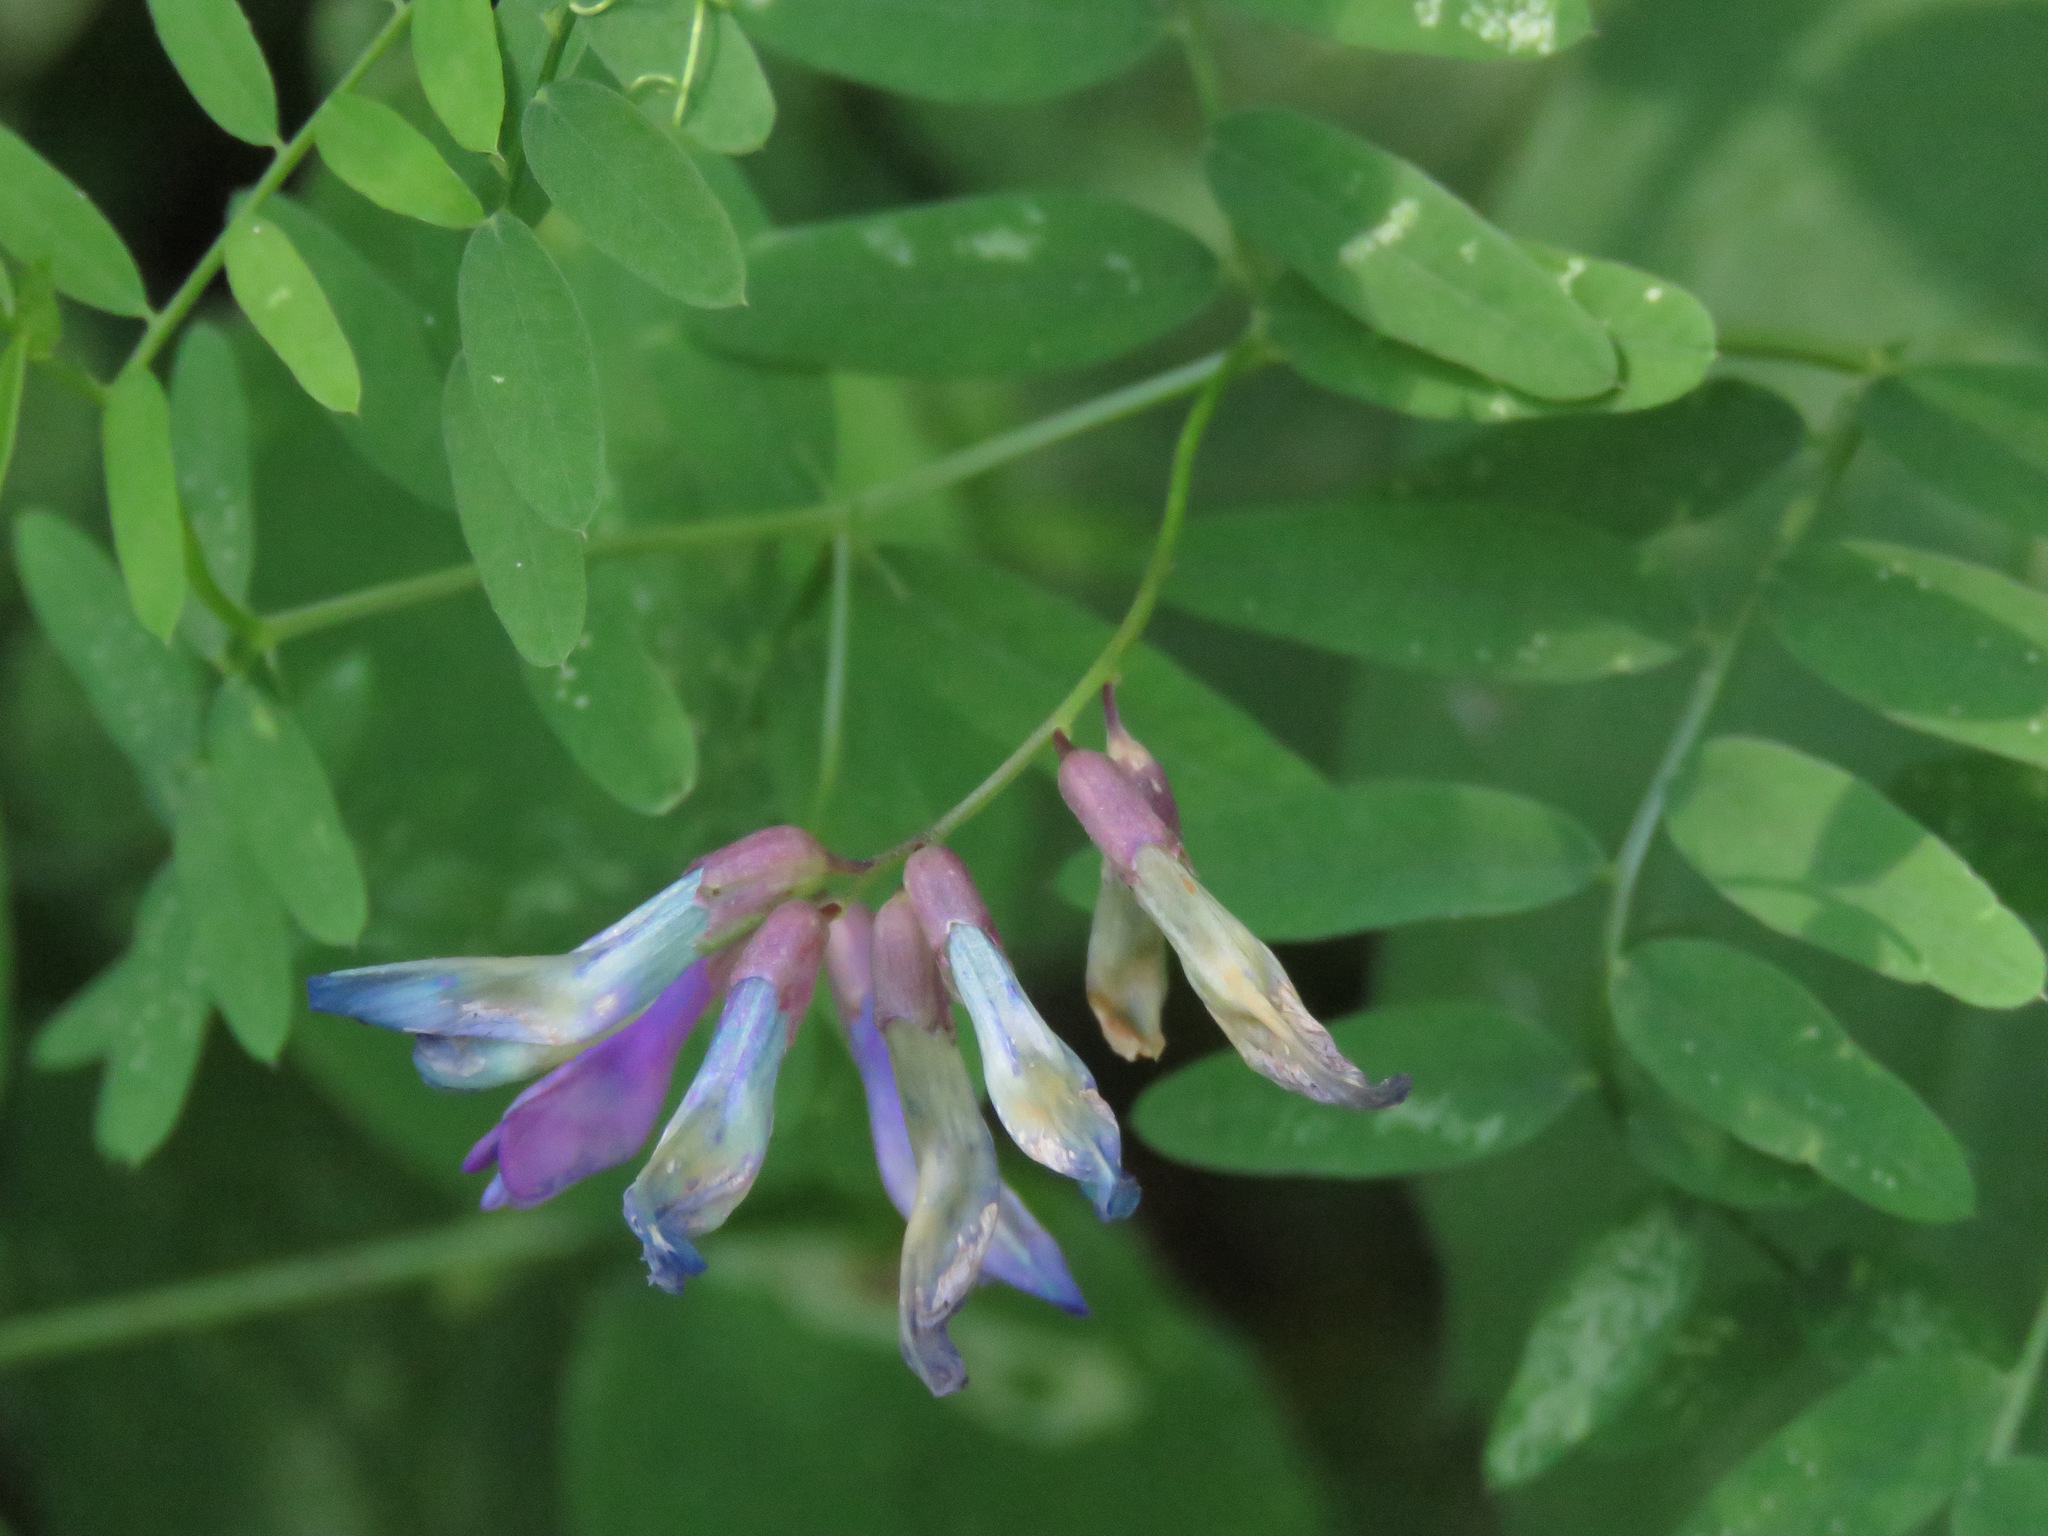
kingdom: Plantae
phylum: Tracheophyta
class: Magnoliopsida
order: Fabales
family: Fabaceae
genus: Vicia
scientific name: Vicia americana
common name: American vetch
